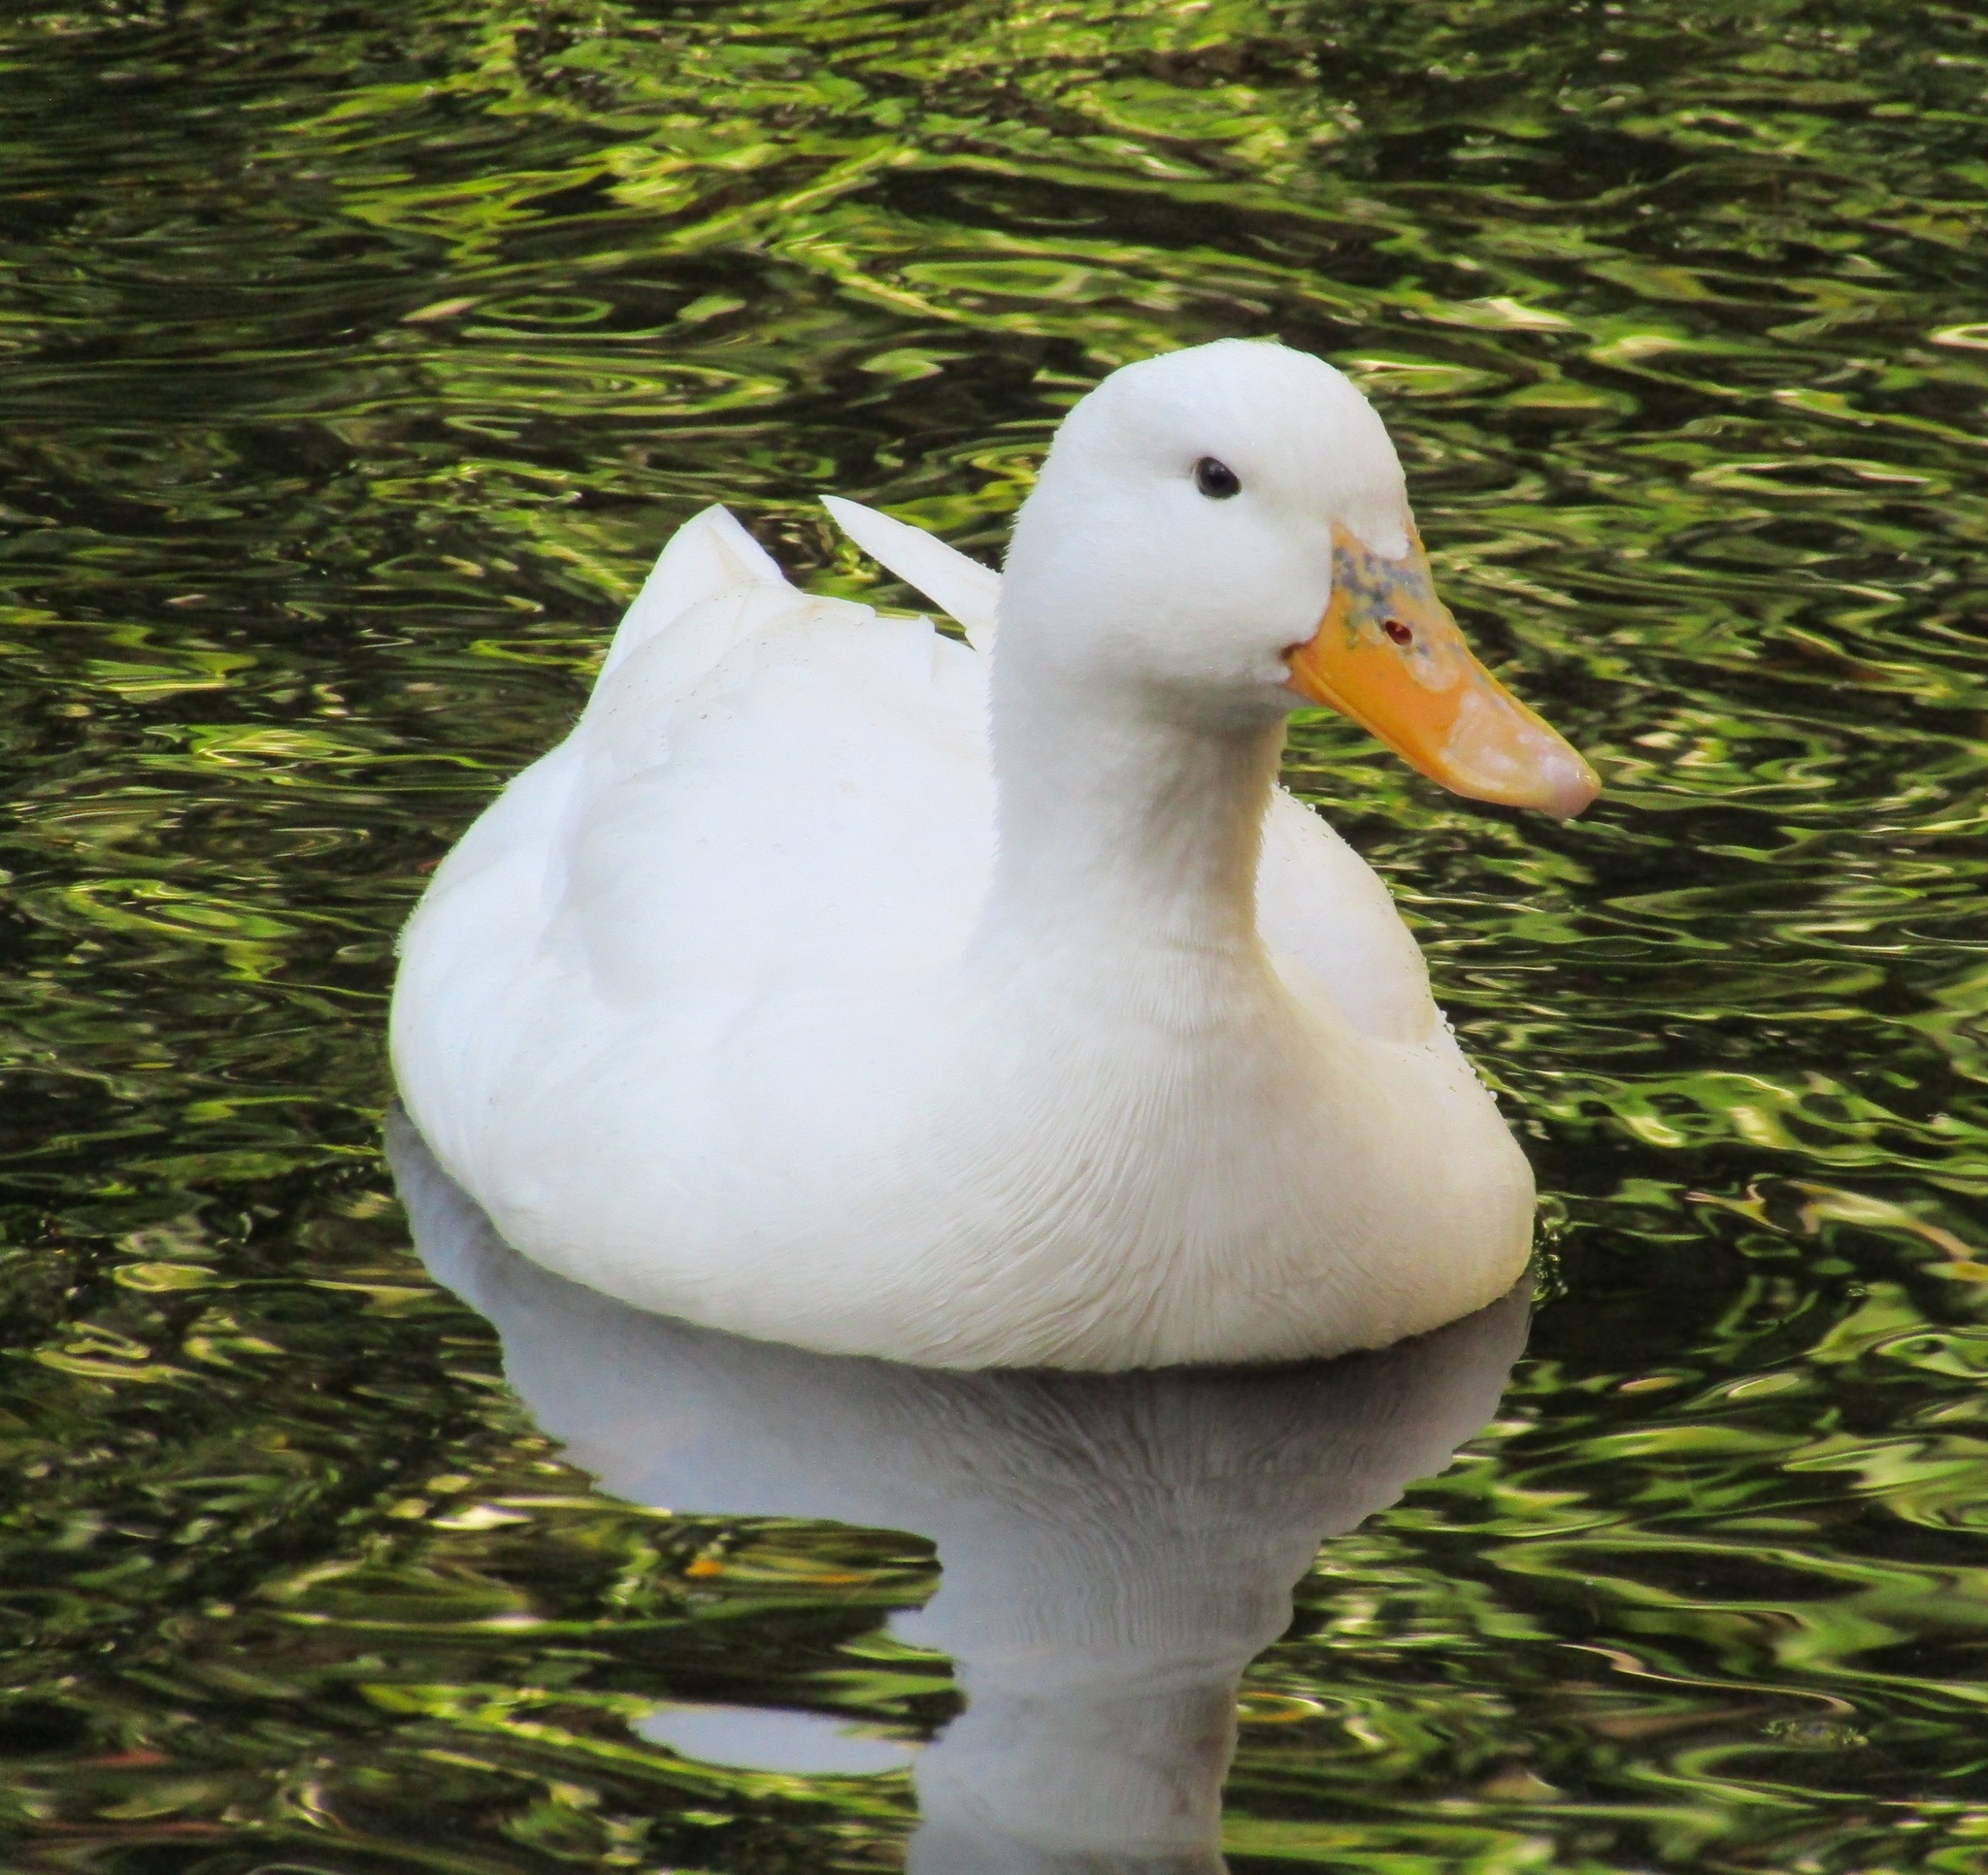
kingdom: Animalia
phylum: Chordata
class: Aves
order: Anseriformes
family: Anatidae
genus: Anas
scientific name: Anas platyrhynchos
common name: Mallard
